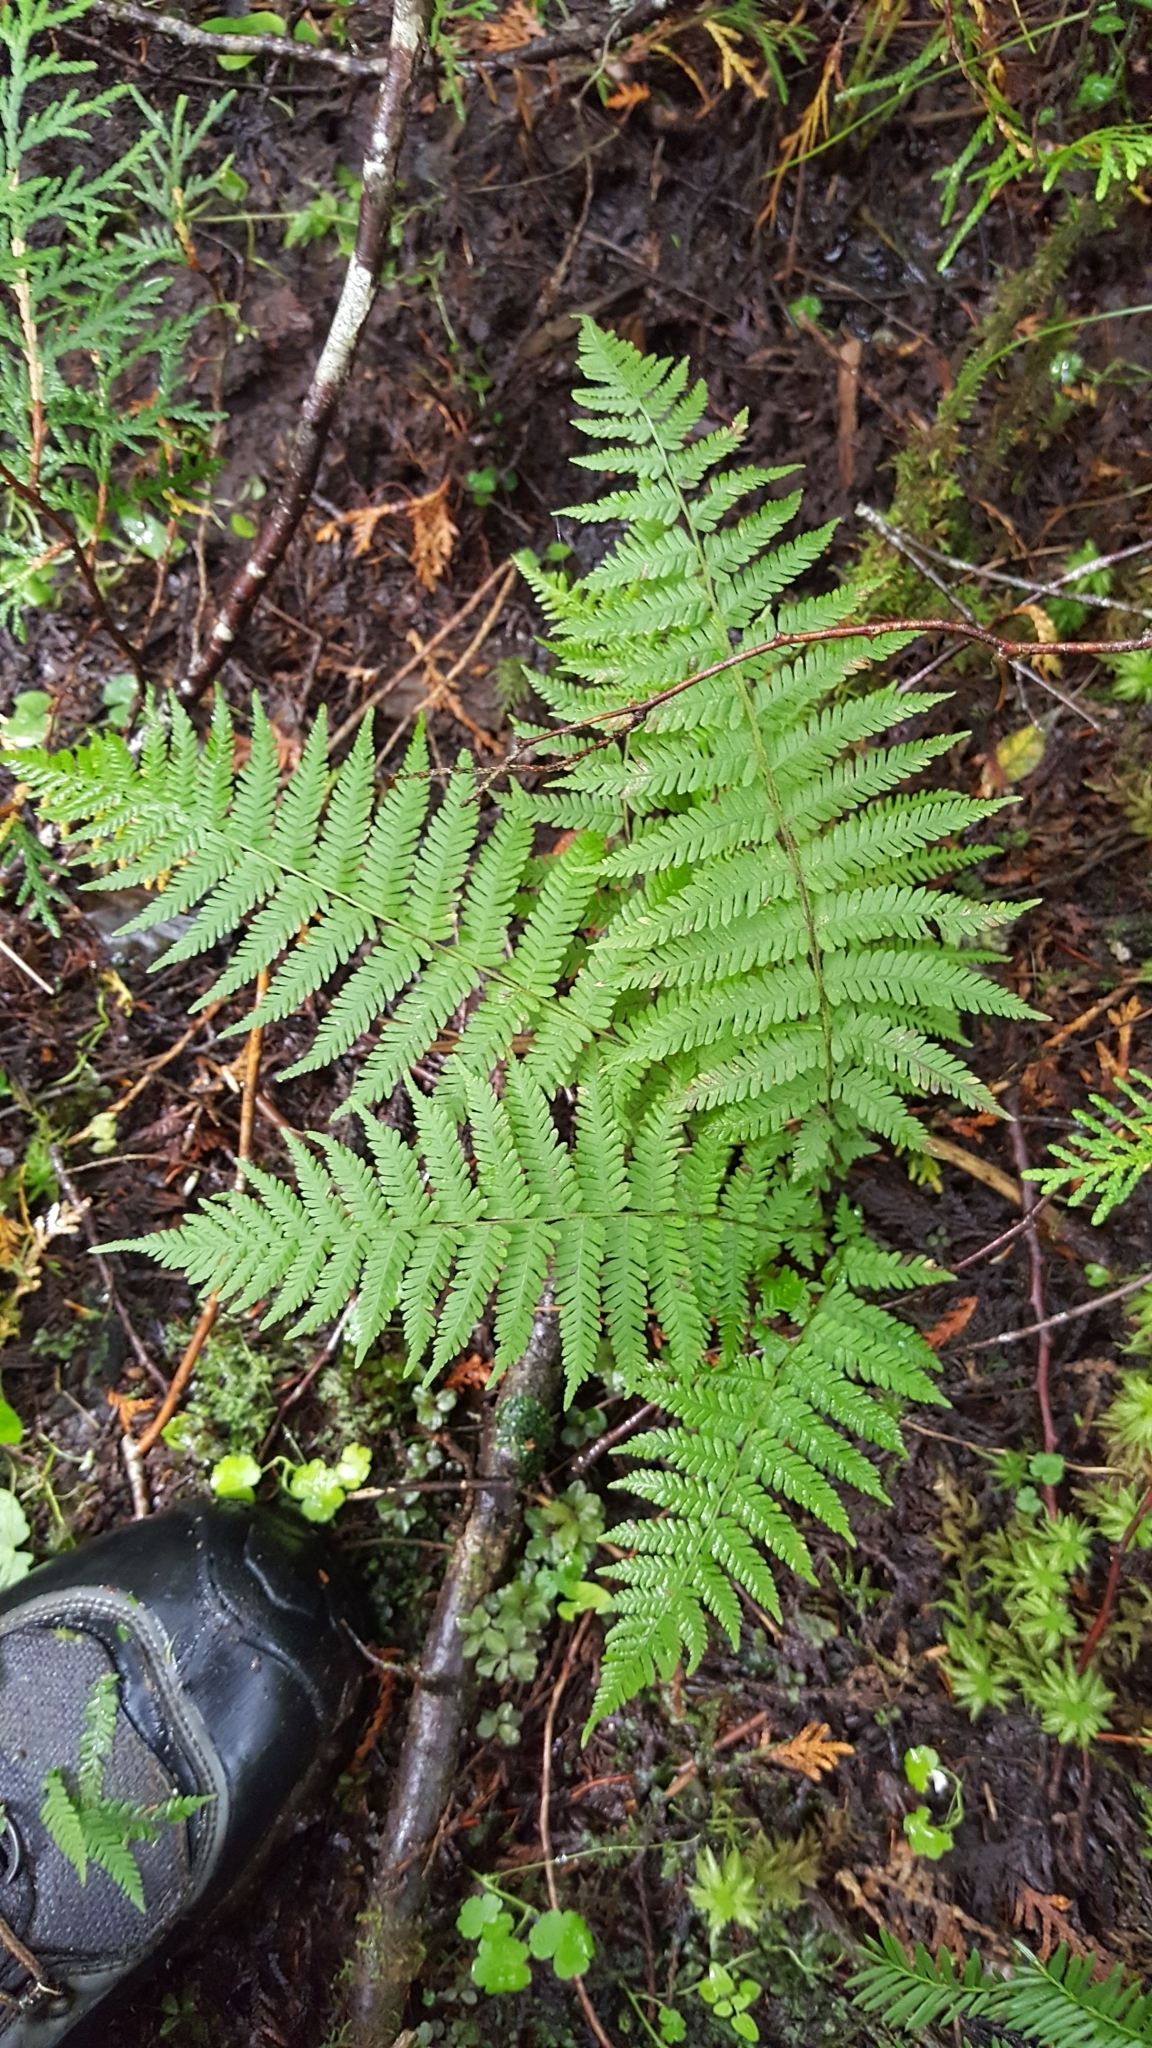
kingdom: Plantae
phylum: Tracheophyta
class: Polypodiopsida
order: Polypodiales
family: Thelypteridaceae
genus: Amauropelta
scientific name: Amauropelta noveboracensis
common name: New york fern
